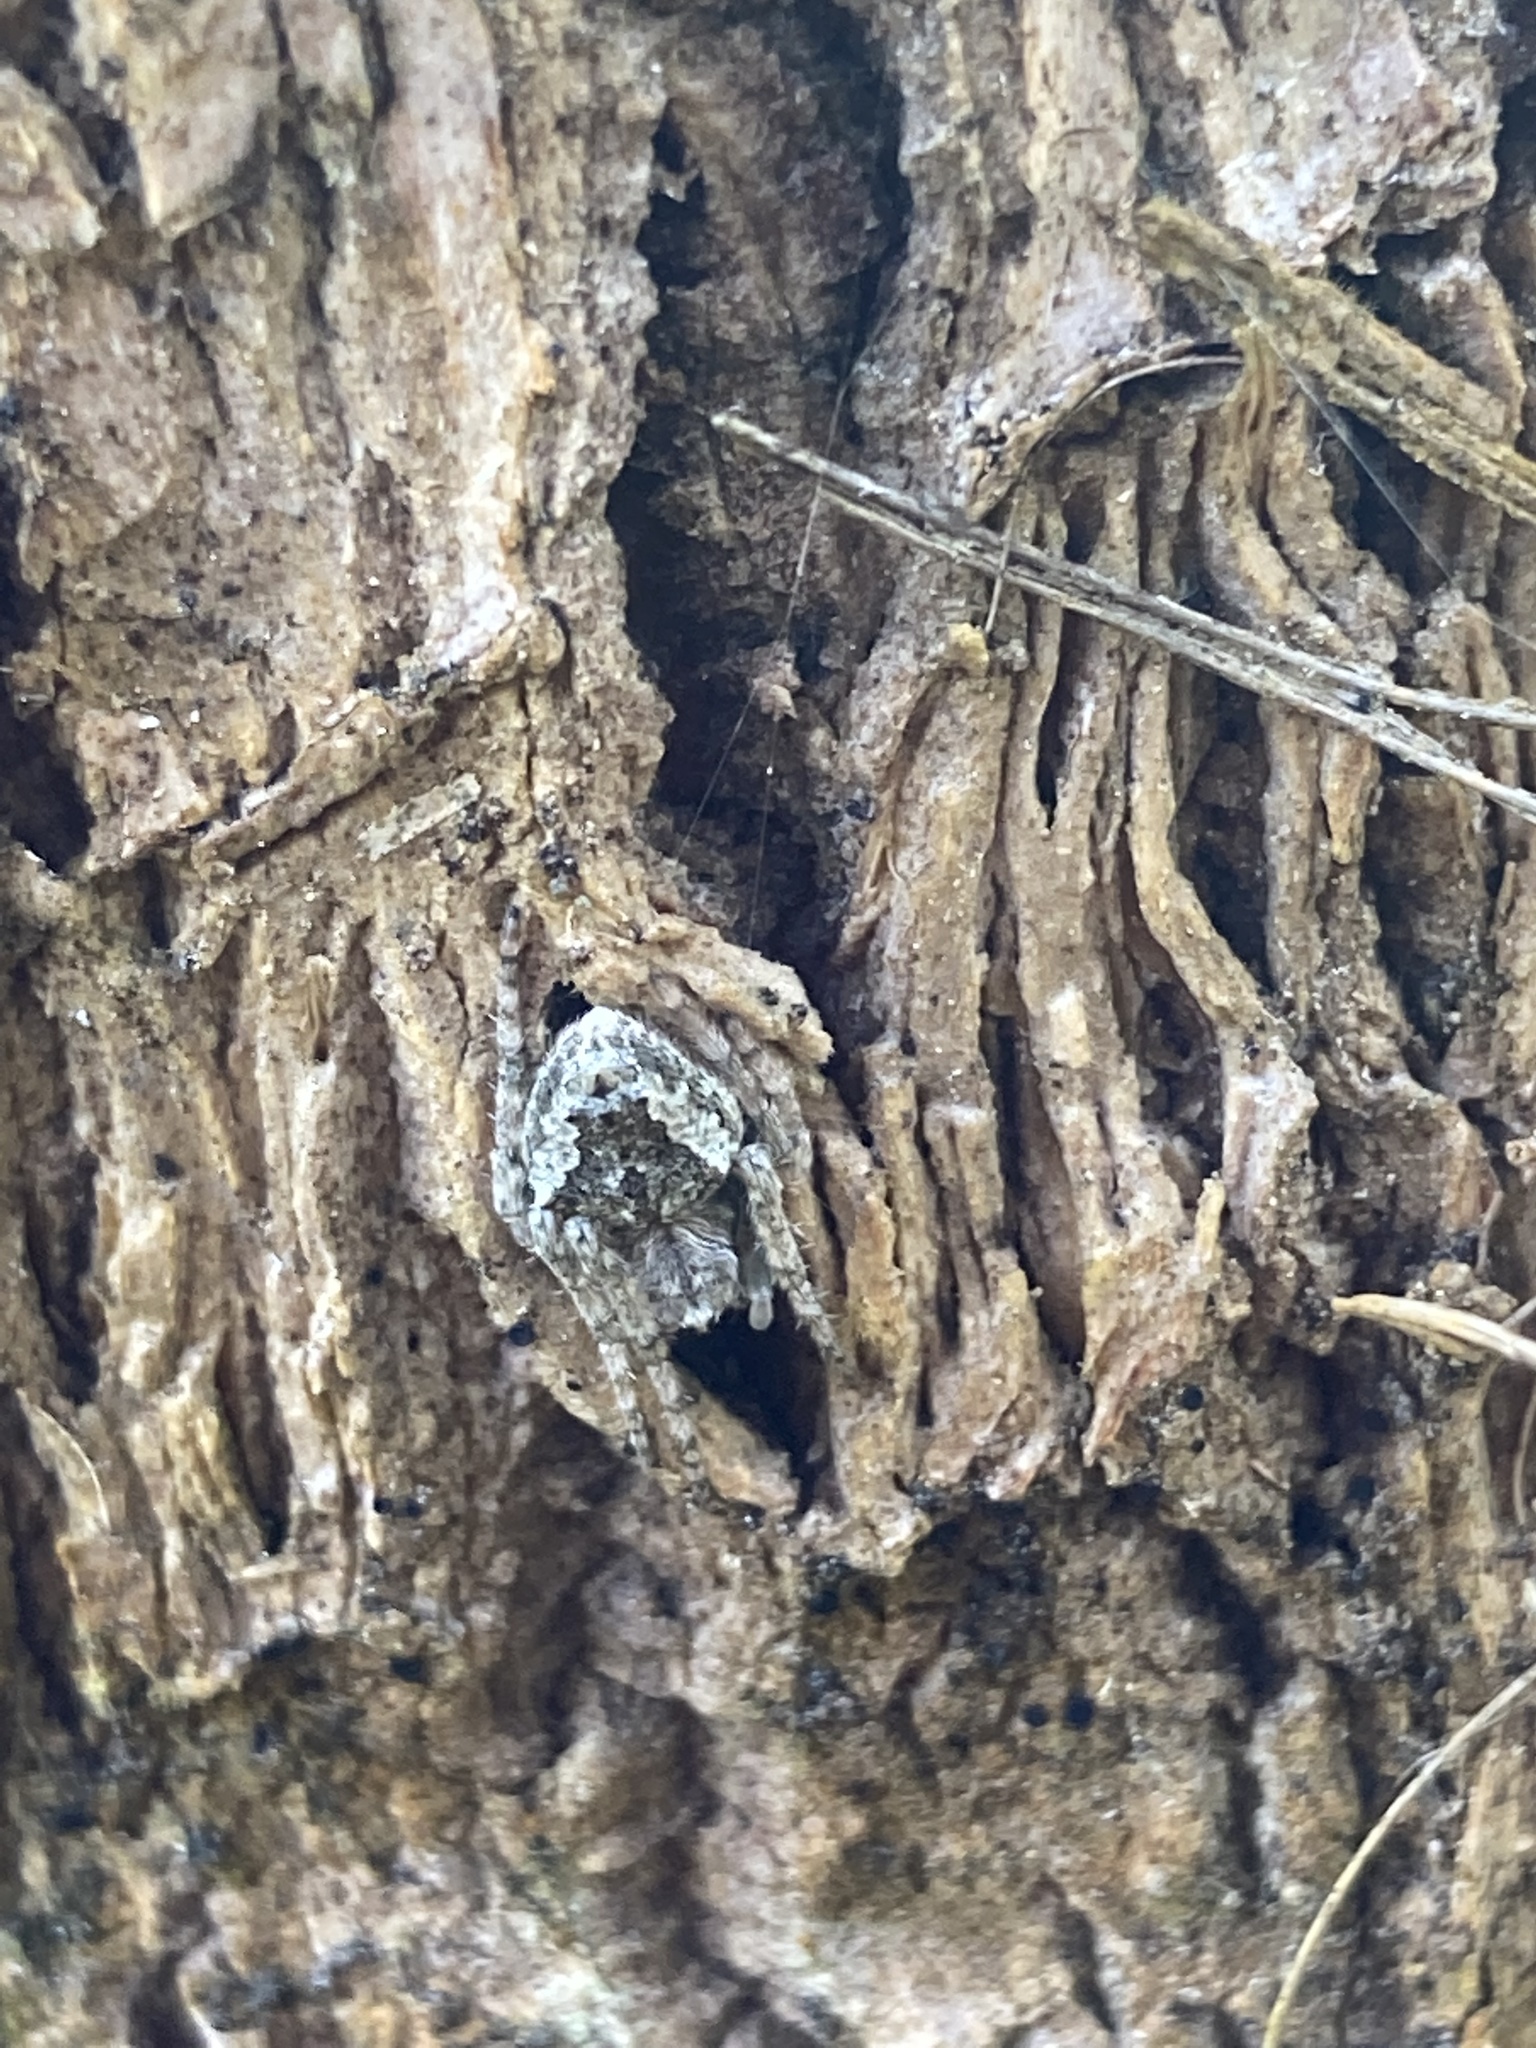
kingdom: Animalia
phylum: Arthropoda
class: Arachnida
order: Araneae
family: Araneidae
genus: Eriophora
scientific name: Eriophora pustulosa
